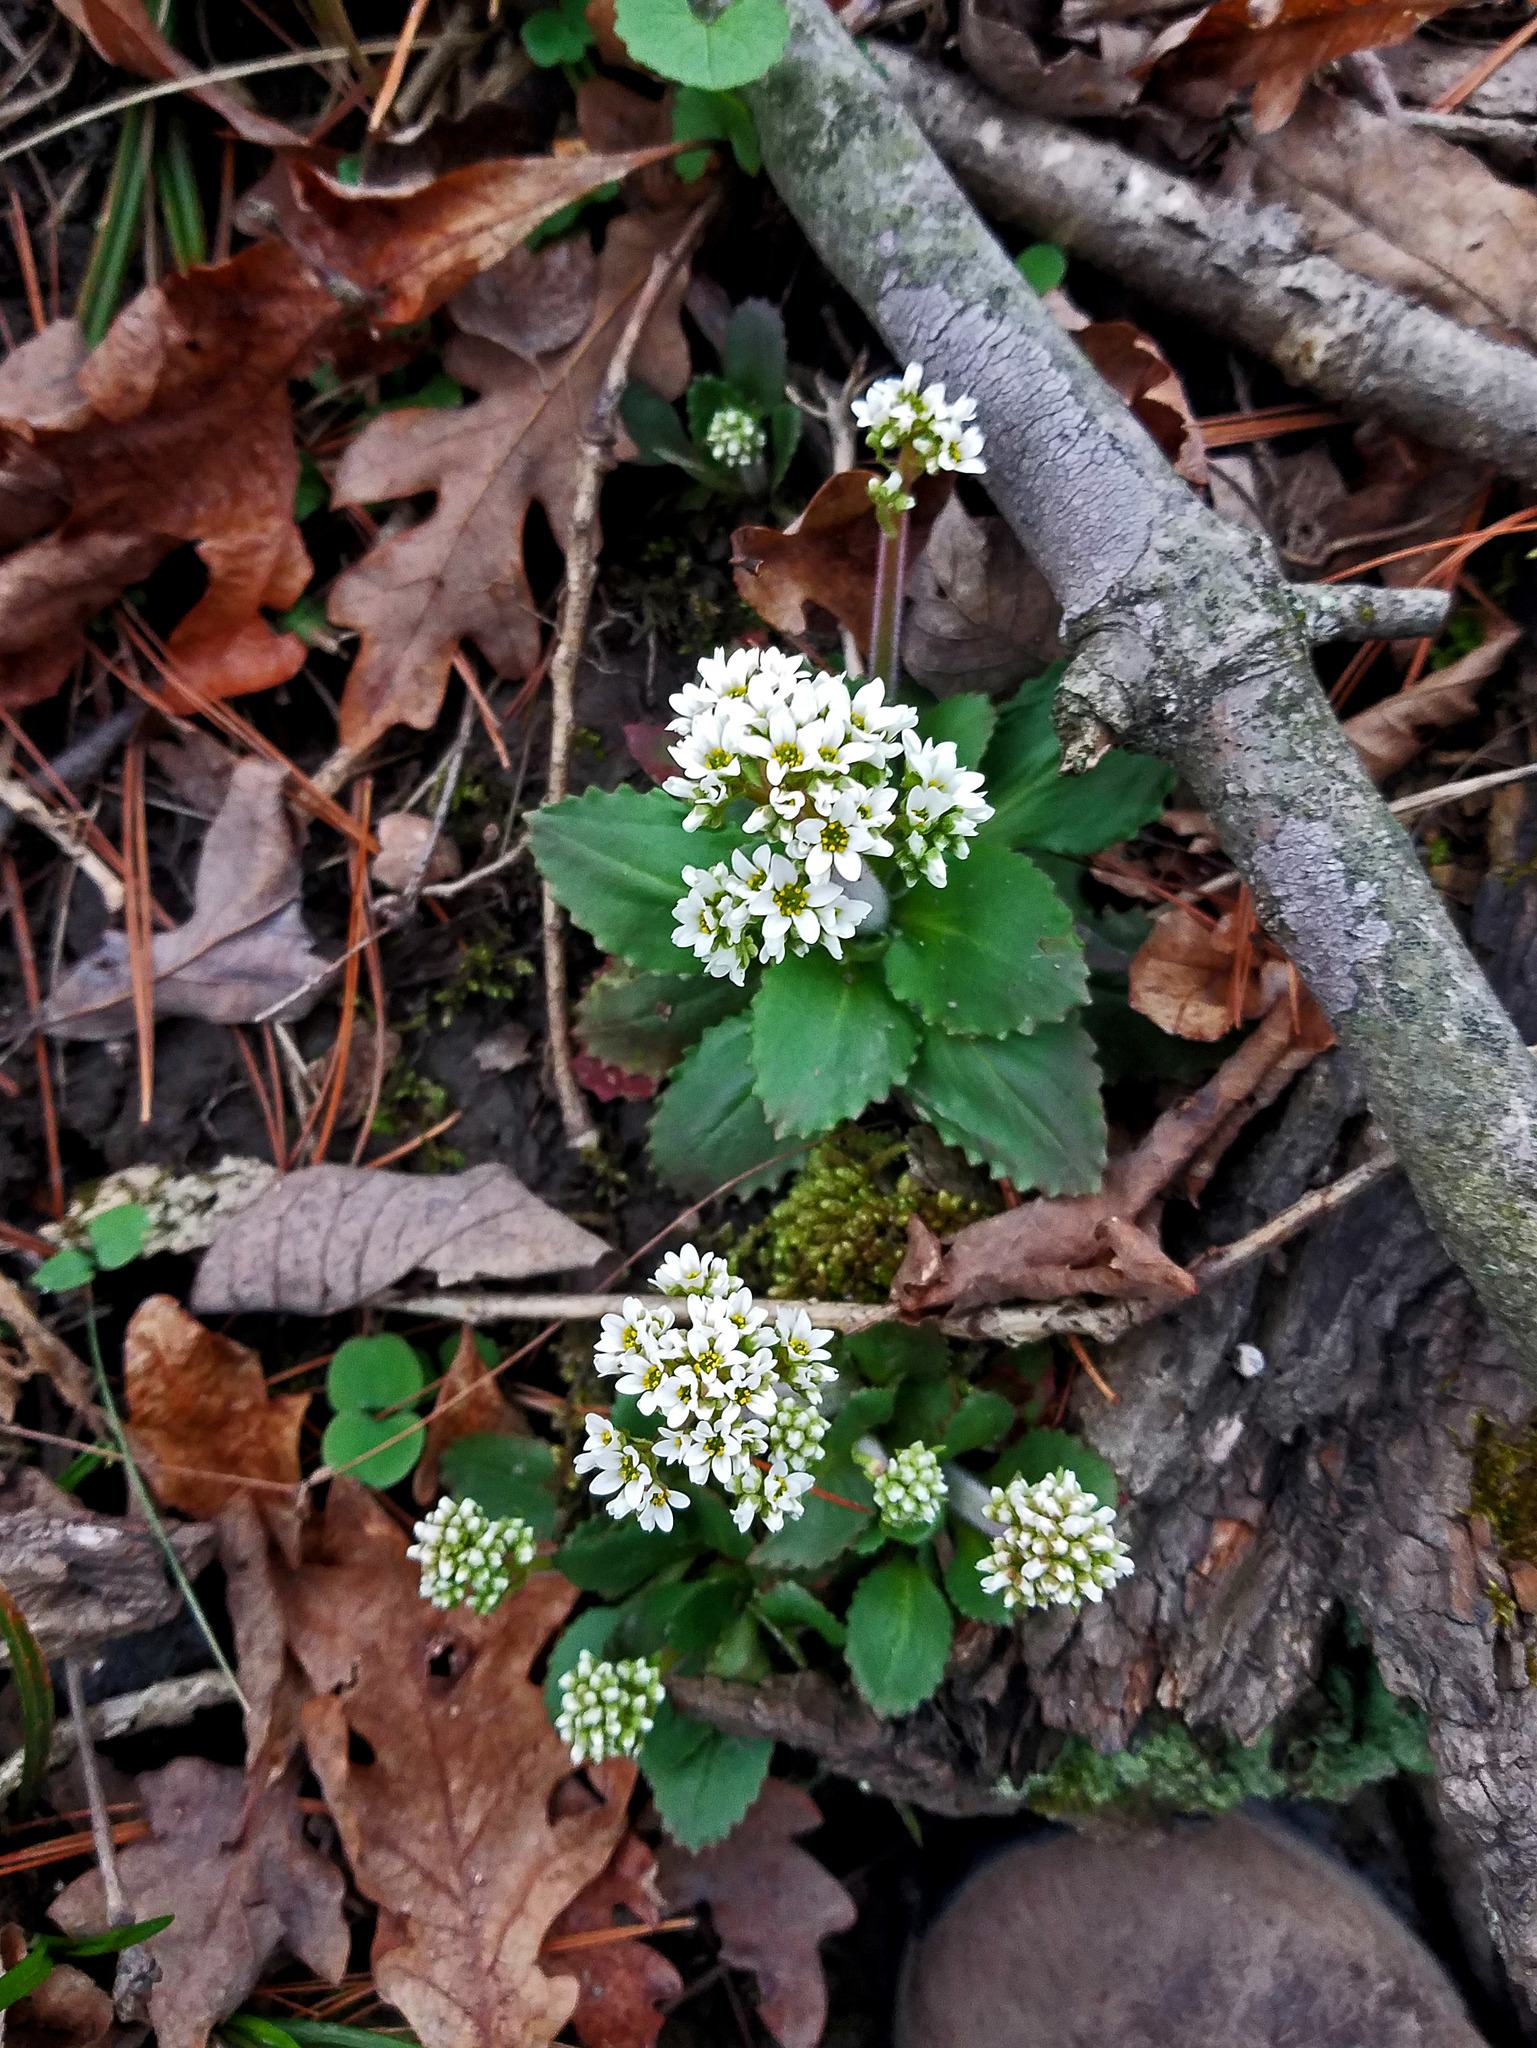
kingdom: Plantae
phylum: Tracheophyta
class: Magnoliopsida
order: Saxifragales
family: Saxifragaceae
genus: Micranthes
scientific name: Micranthes virginiensis
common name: Early saxifrage
